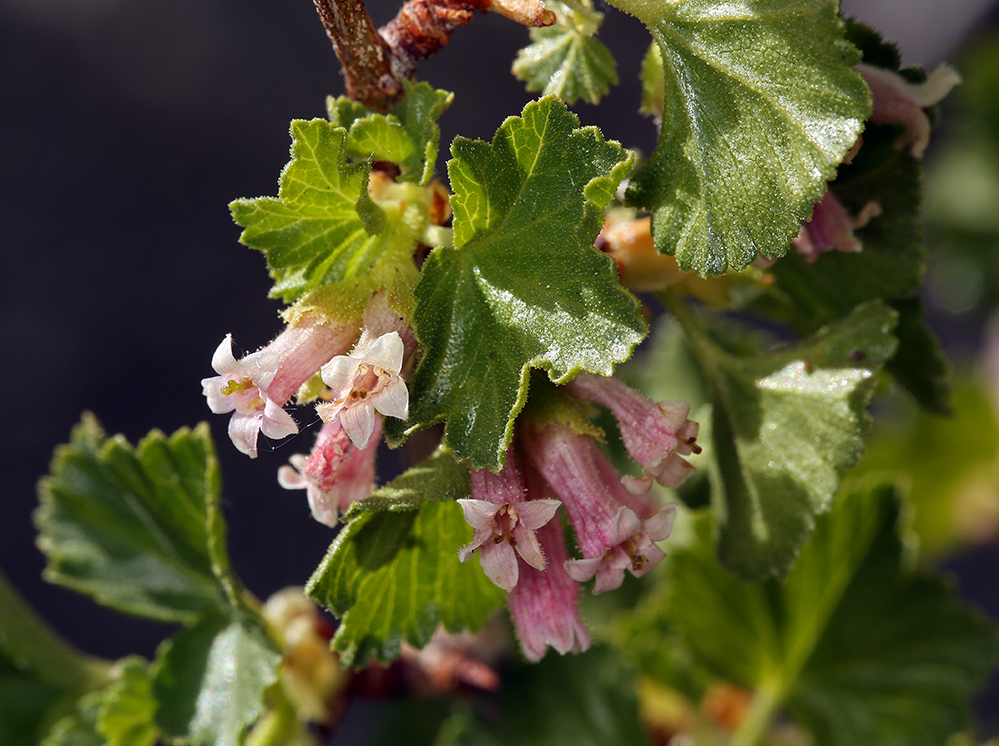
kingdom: Plantae
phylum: Tracheophyta
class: Magnoliopsida
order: Saxifragales
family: Grossulariaceae
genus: Ribes
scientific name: Ribes cereum
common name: Wax currant
